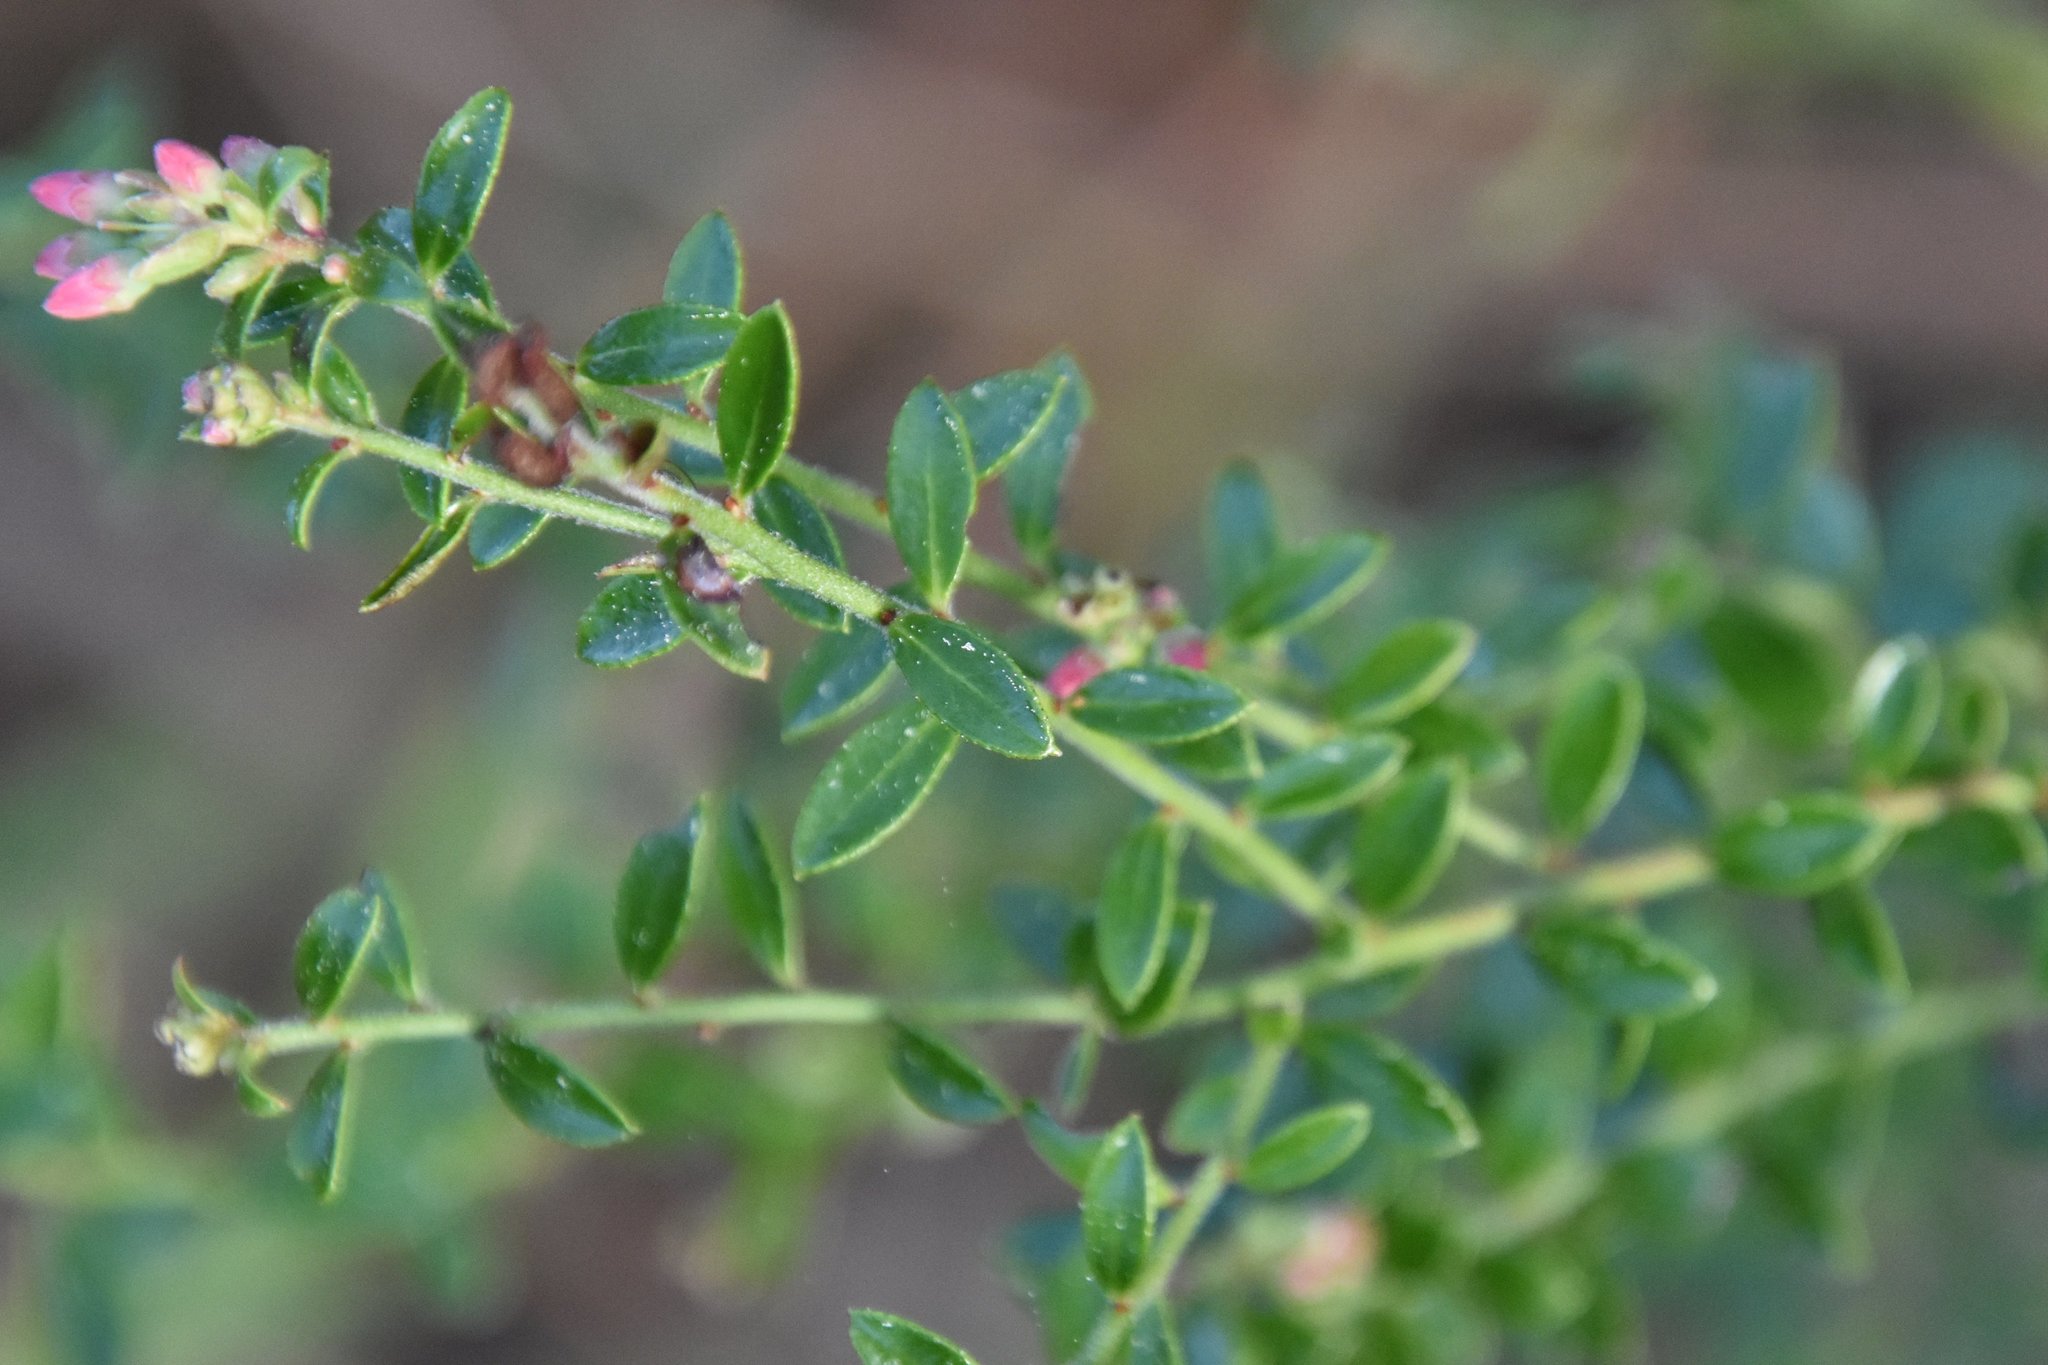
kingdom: Plantae
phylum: Tracheophyta
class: Magnoliopsida
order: Ericales
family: Ericaceae
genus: Vaccinium
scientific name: Vaccinium myrsinites
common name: Evergreen blueberry
